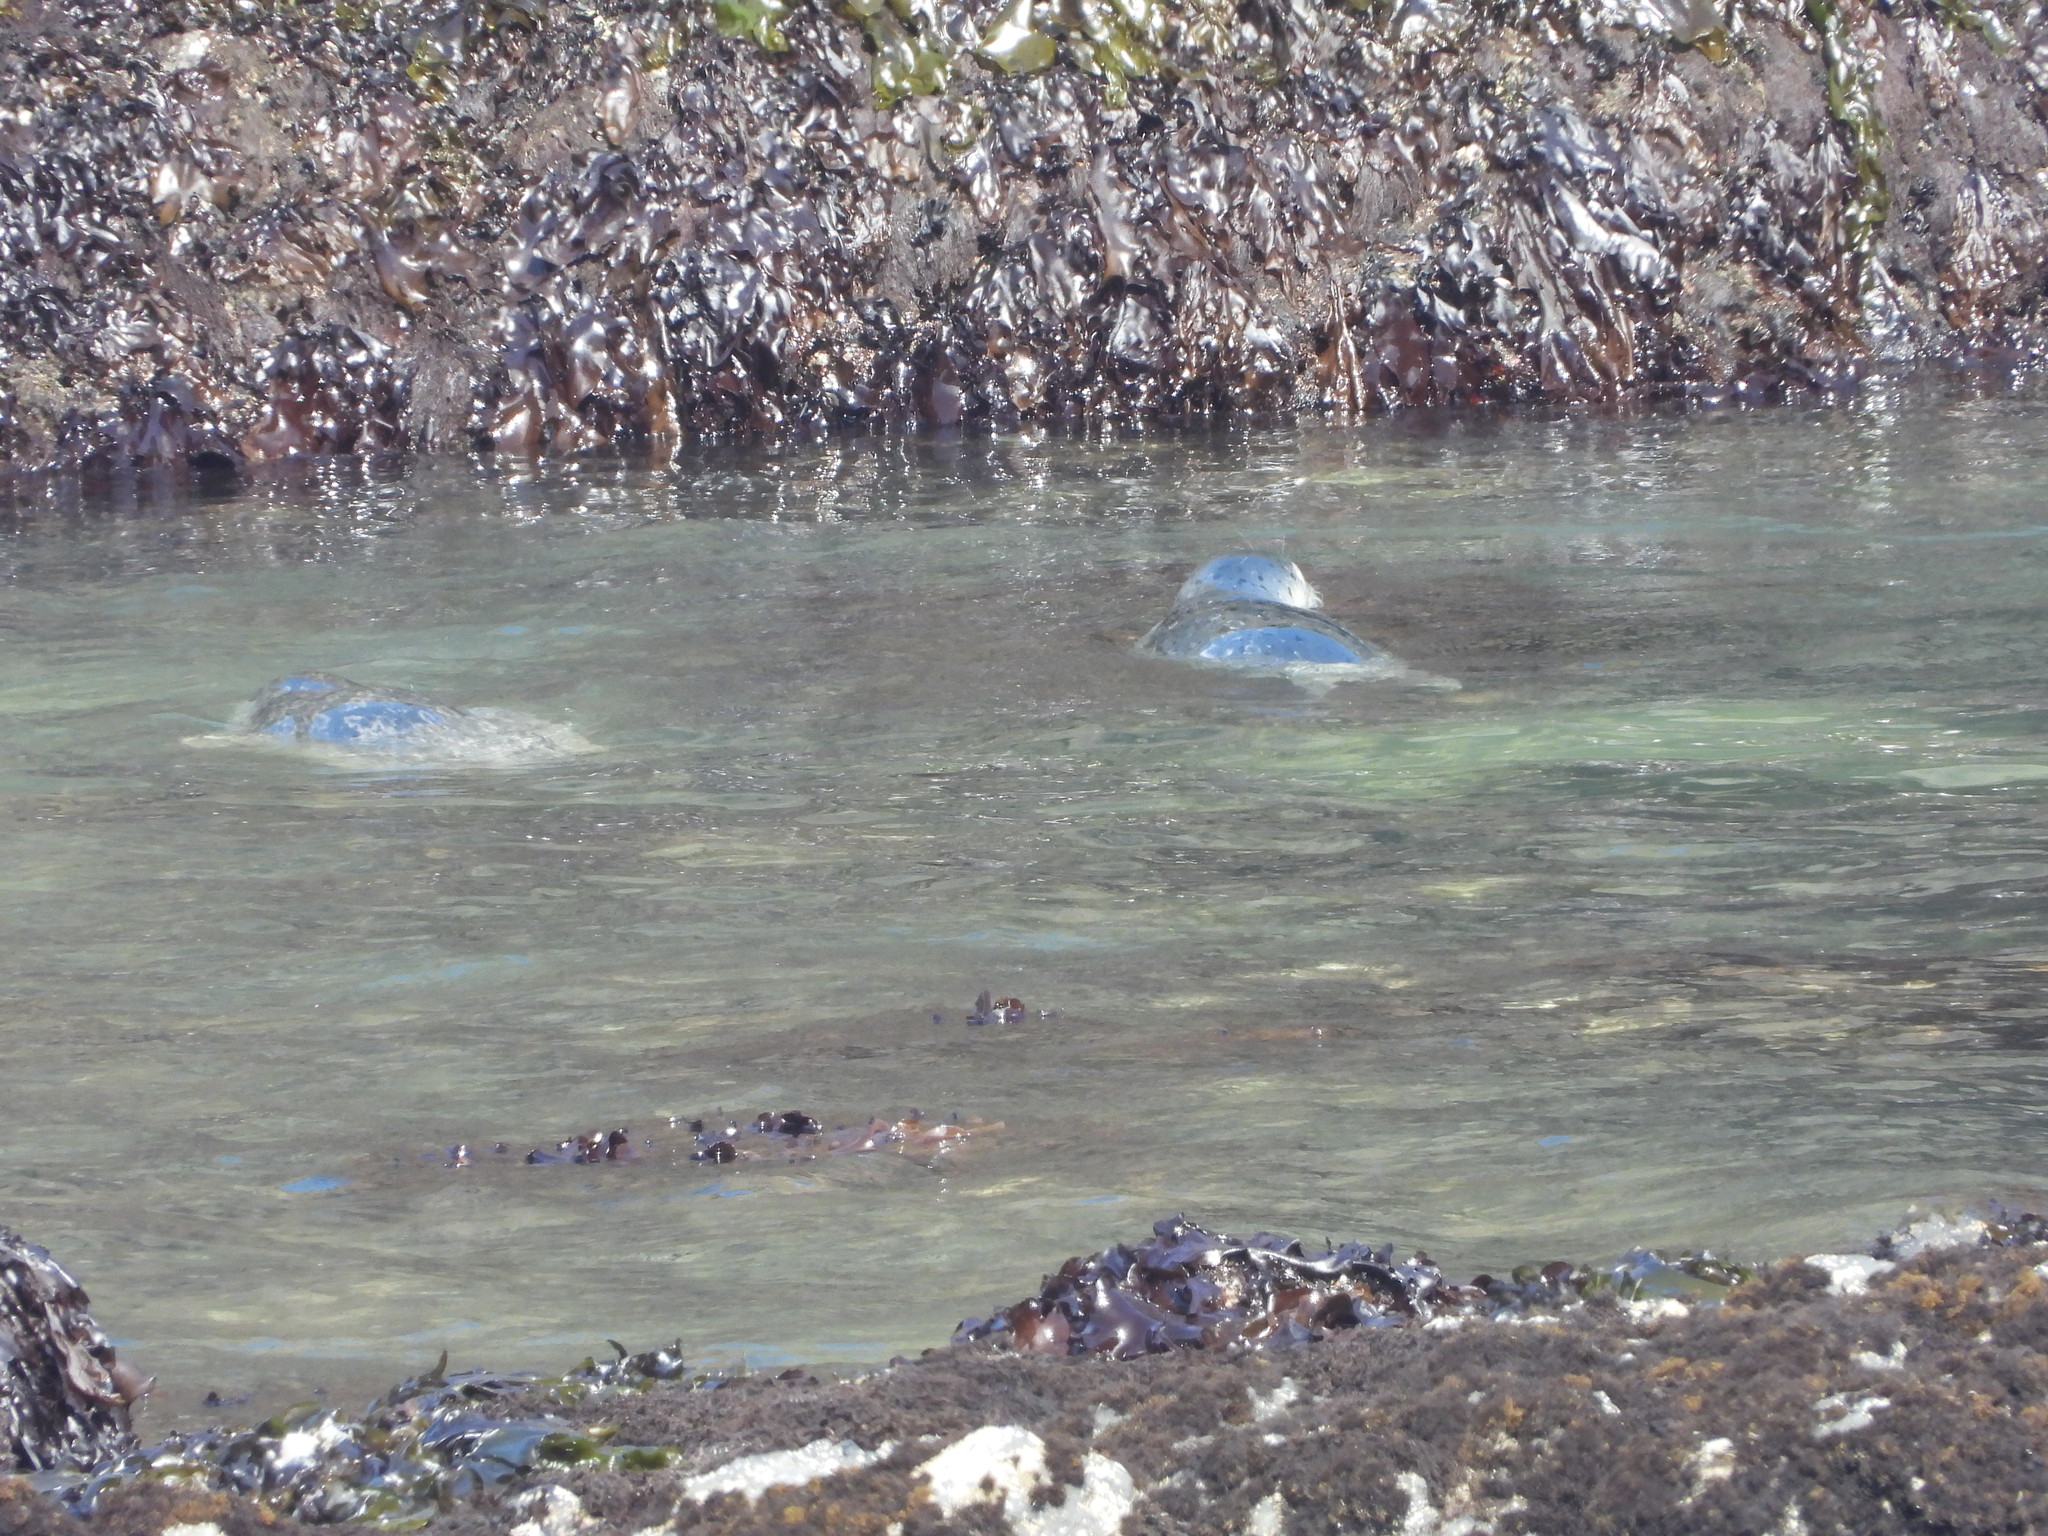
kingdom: Animalia
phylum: Chordata
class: Mammalia
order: Carnivora
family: Phocidae
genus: Phoca
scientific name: Phoca vitulina
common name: Harbor seal
